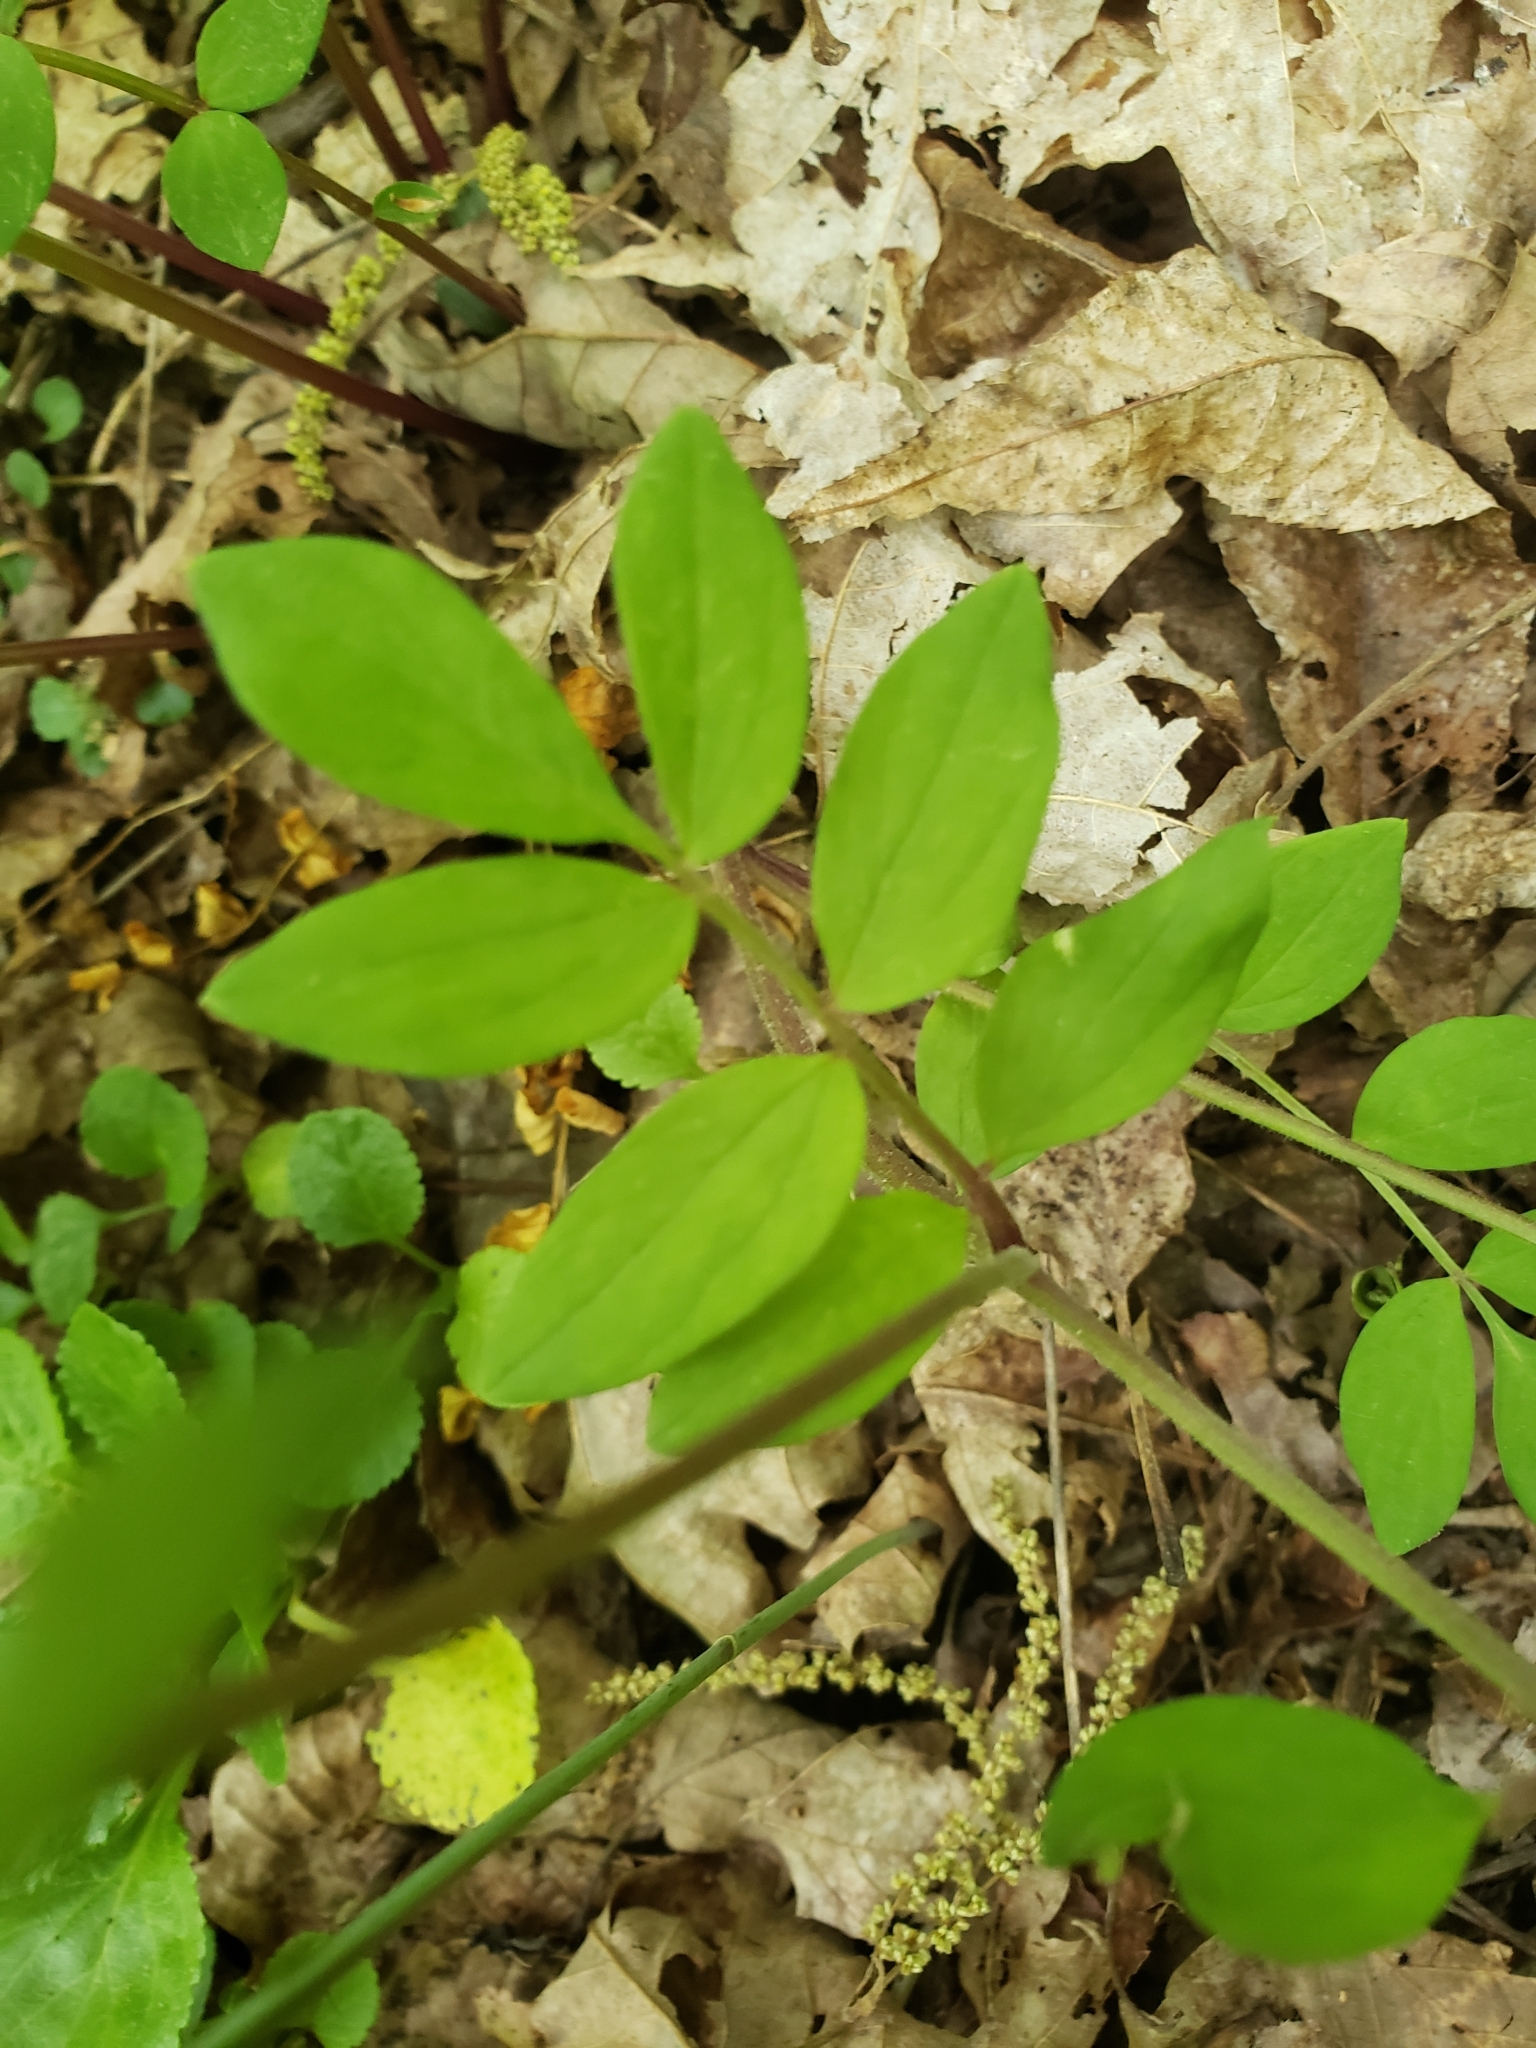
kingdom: Plantae
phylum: Tracheophyta
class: Magnoliopsida
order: Ericales
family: Polemoniaceae
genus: Polemonium
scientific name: Polemonium reptans
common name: Creeping jacob's-ladder
